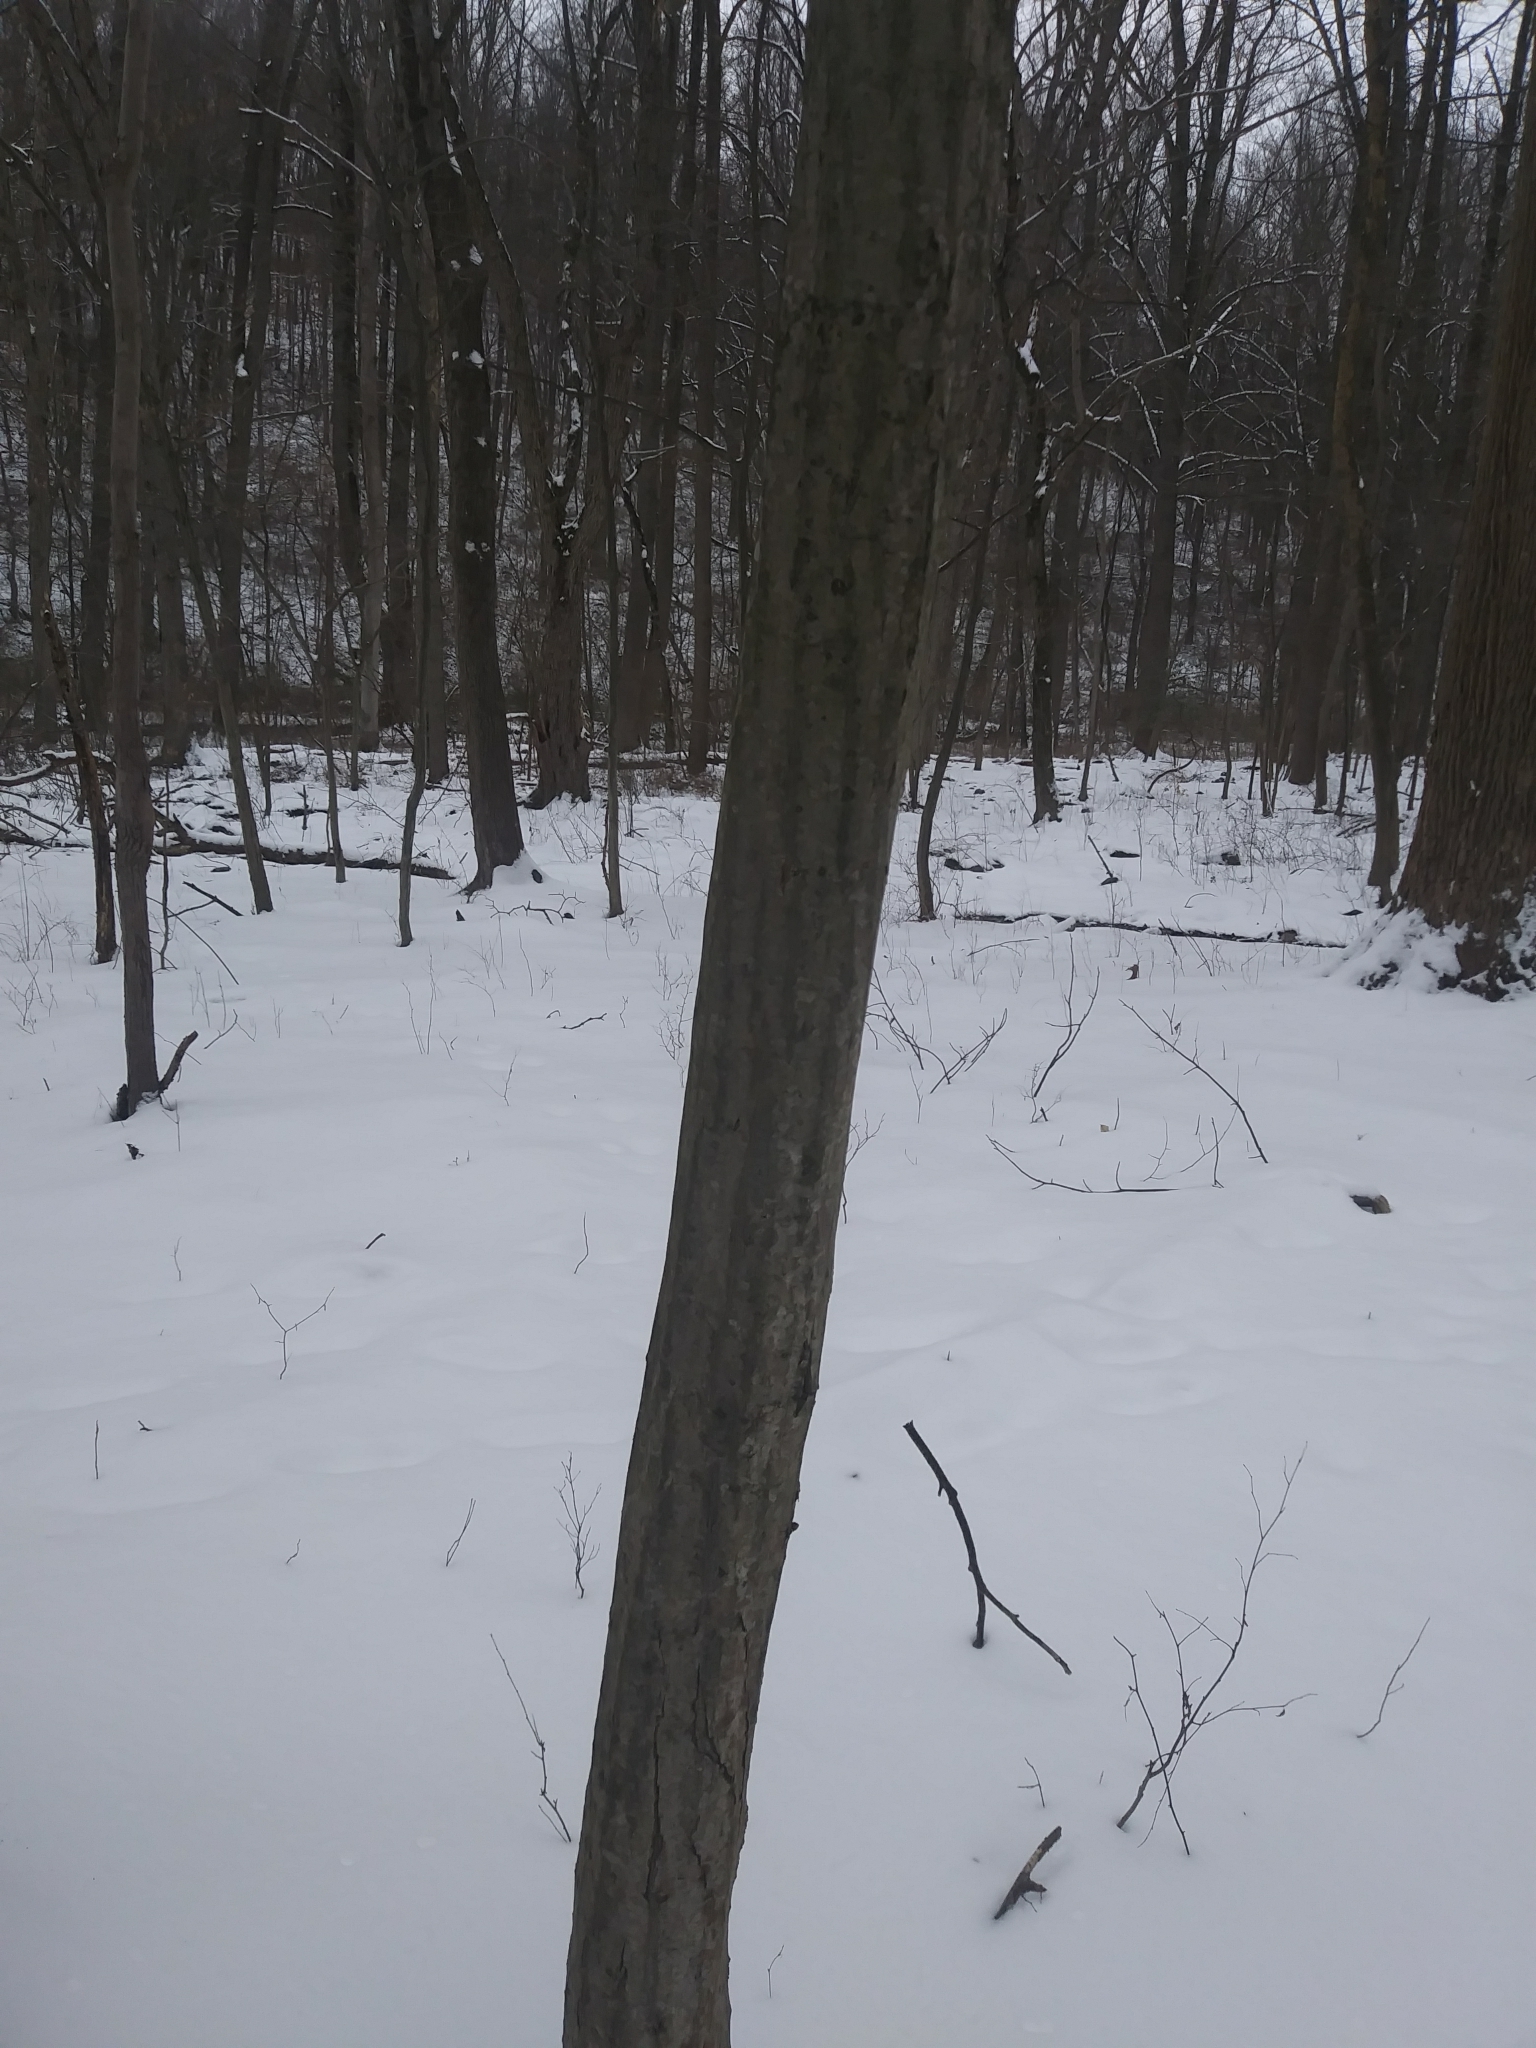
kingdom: Plantae
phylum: Tracheophyta
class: Magnoliopsida
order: Fagales
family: Betulaceae
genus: Carpinus
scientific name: Carpinus caroliniana
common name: American hornbeam
